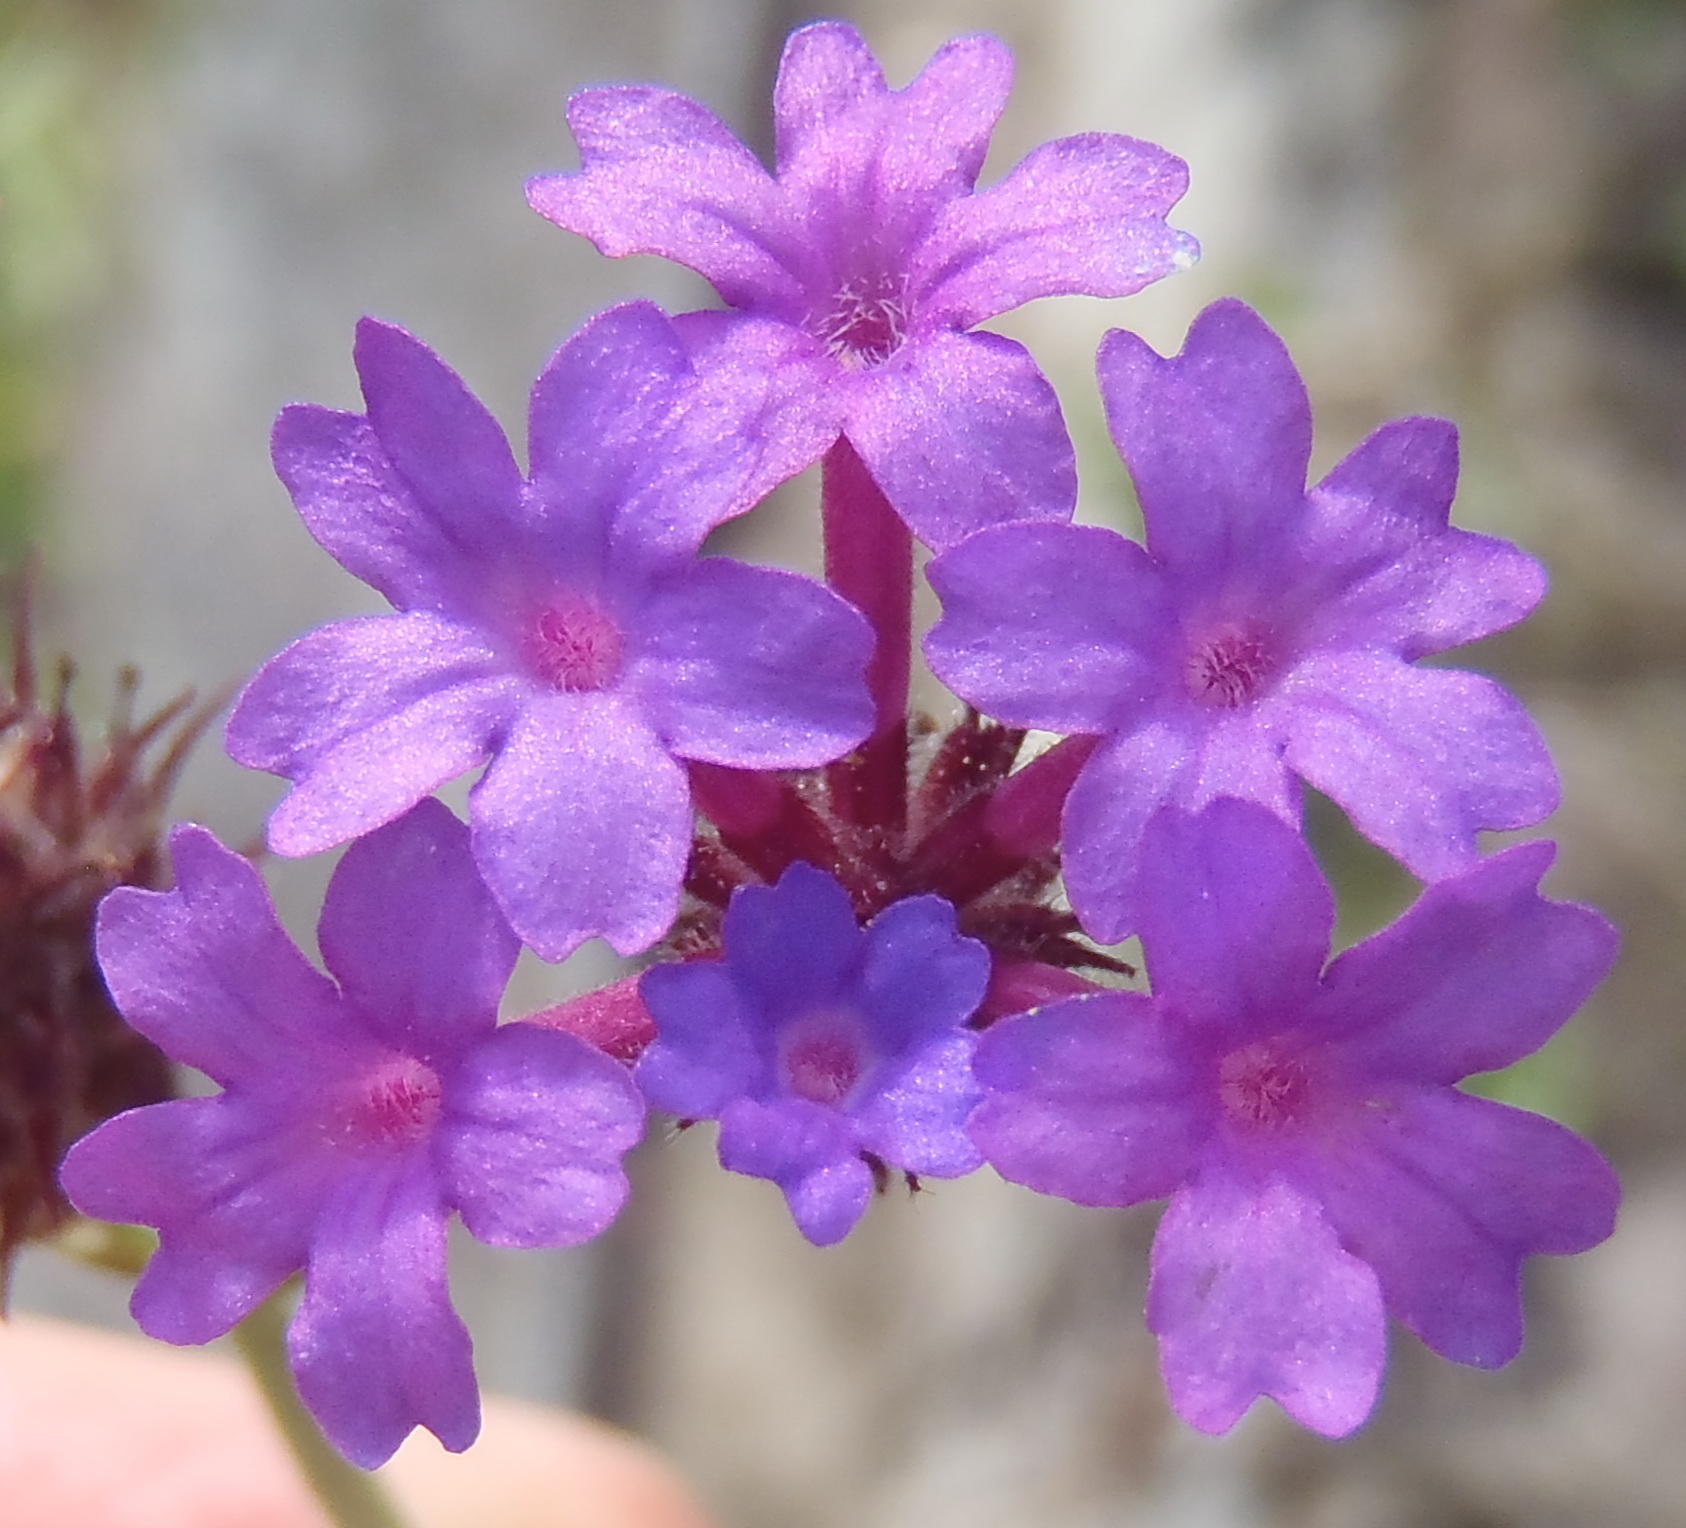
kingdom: Plantae
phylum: Tracheophyta
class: Magnoliopsida
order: Lamiales
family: Verbenaceae
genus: Verbena
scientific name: Verbena rigida
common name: Slender vervain
